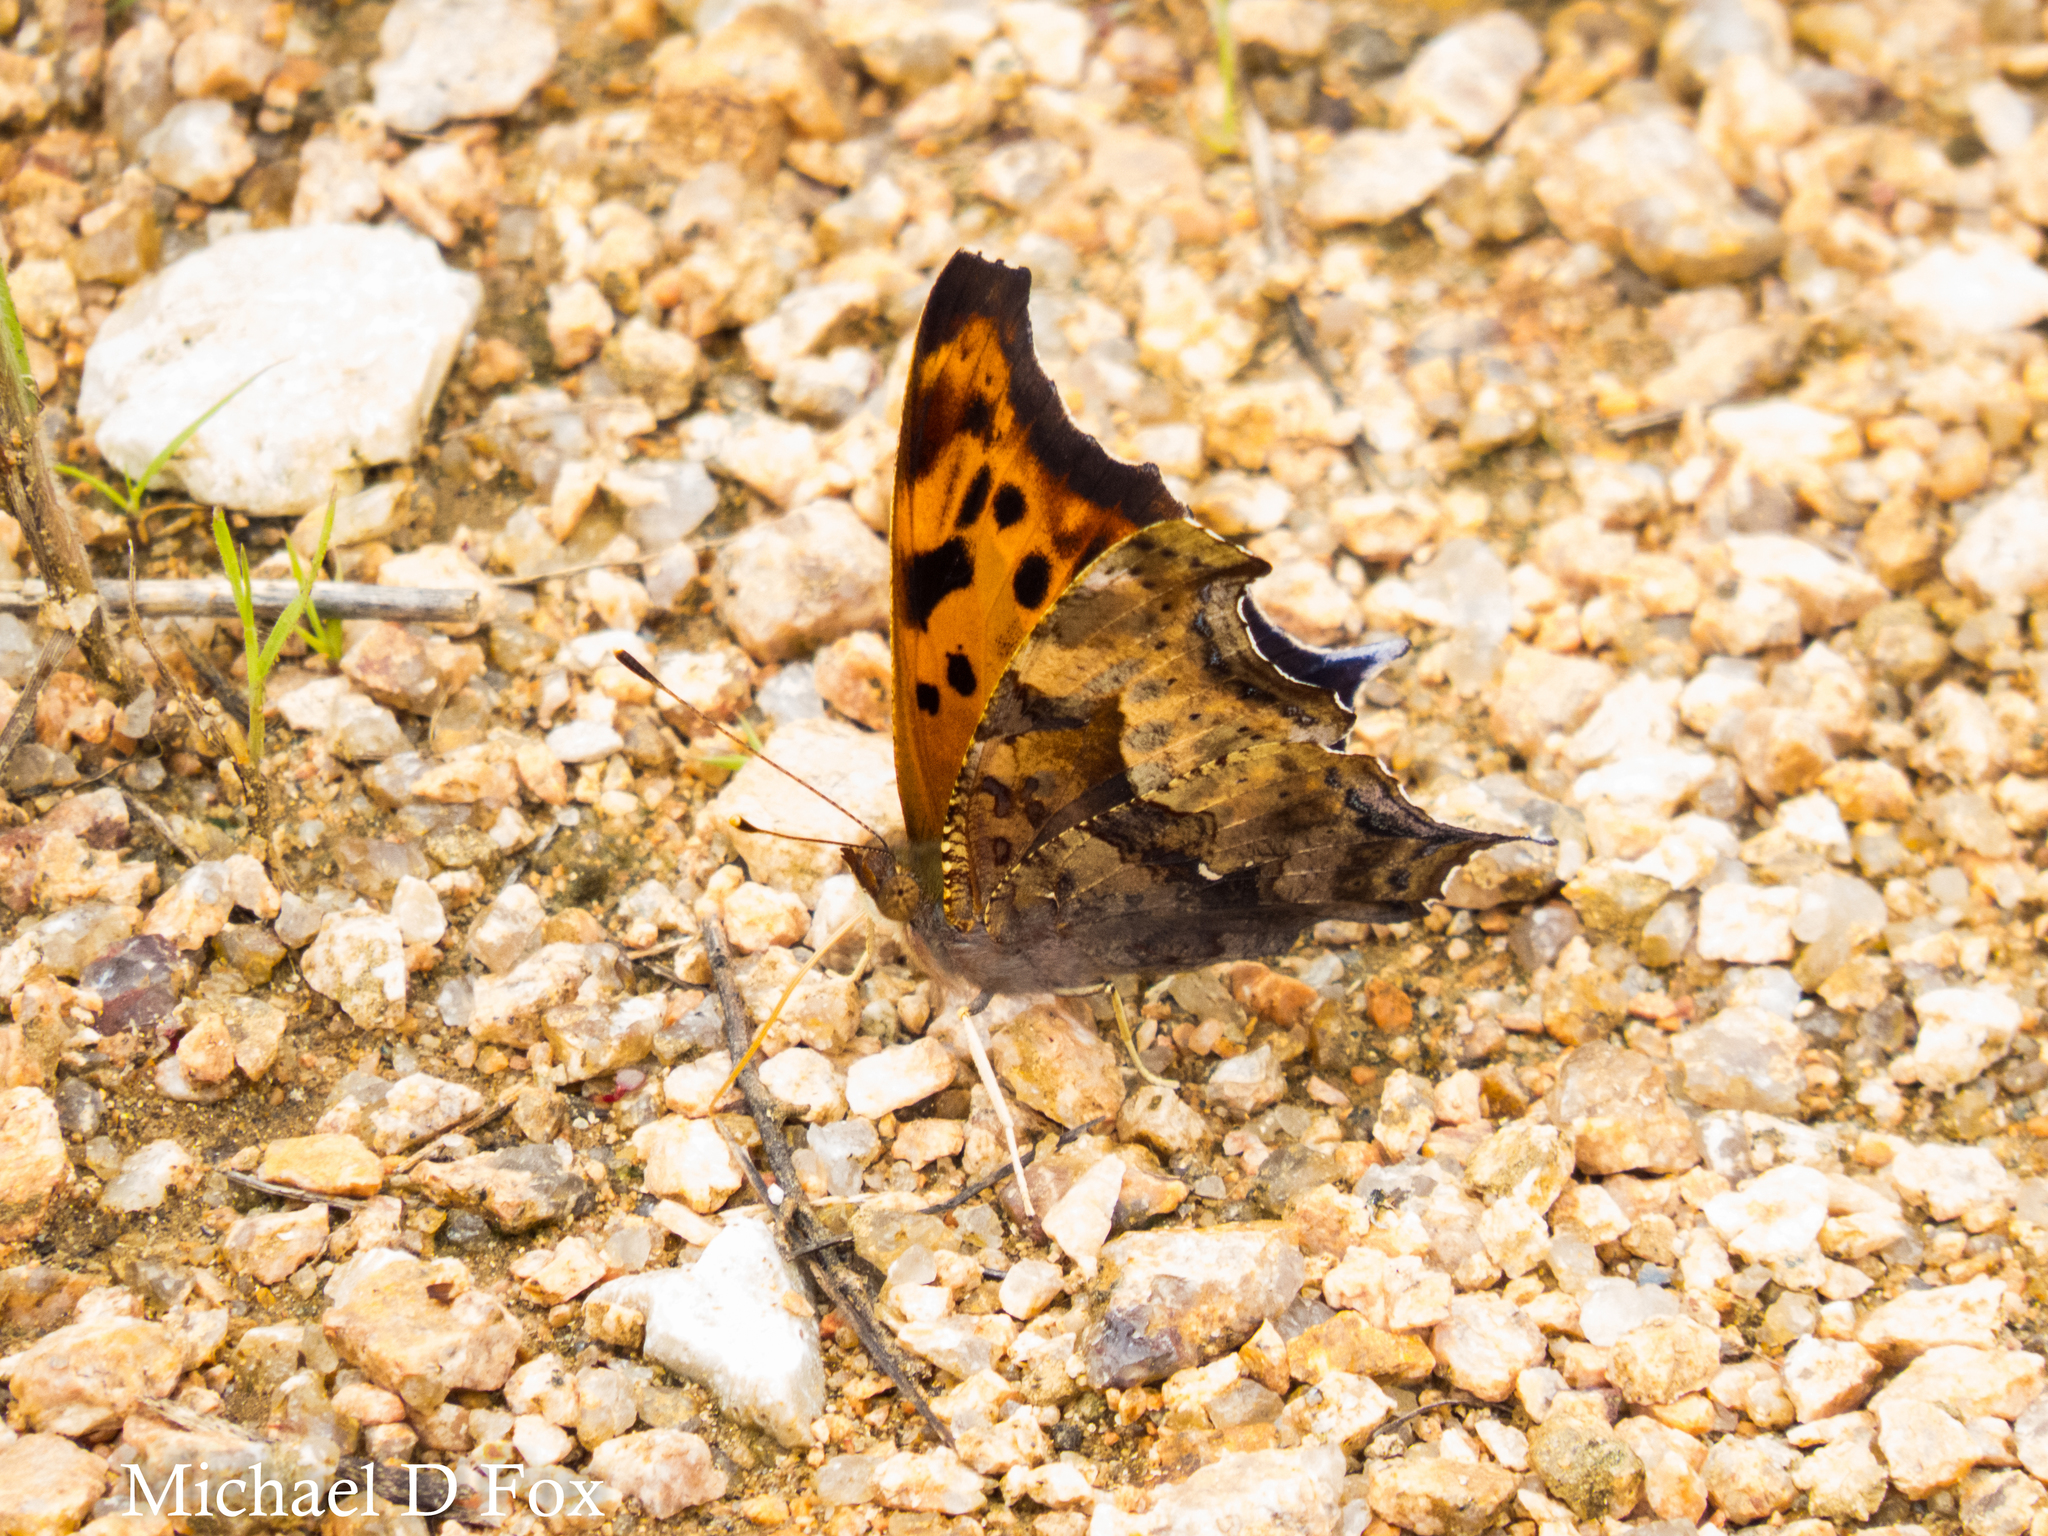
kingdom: Animalia
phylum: Arthropoda
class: Insecta
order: Lepidoptera
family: Nymphalidae
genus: Polygonia
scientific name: Polygonia interrogationis
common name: Question mark
